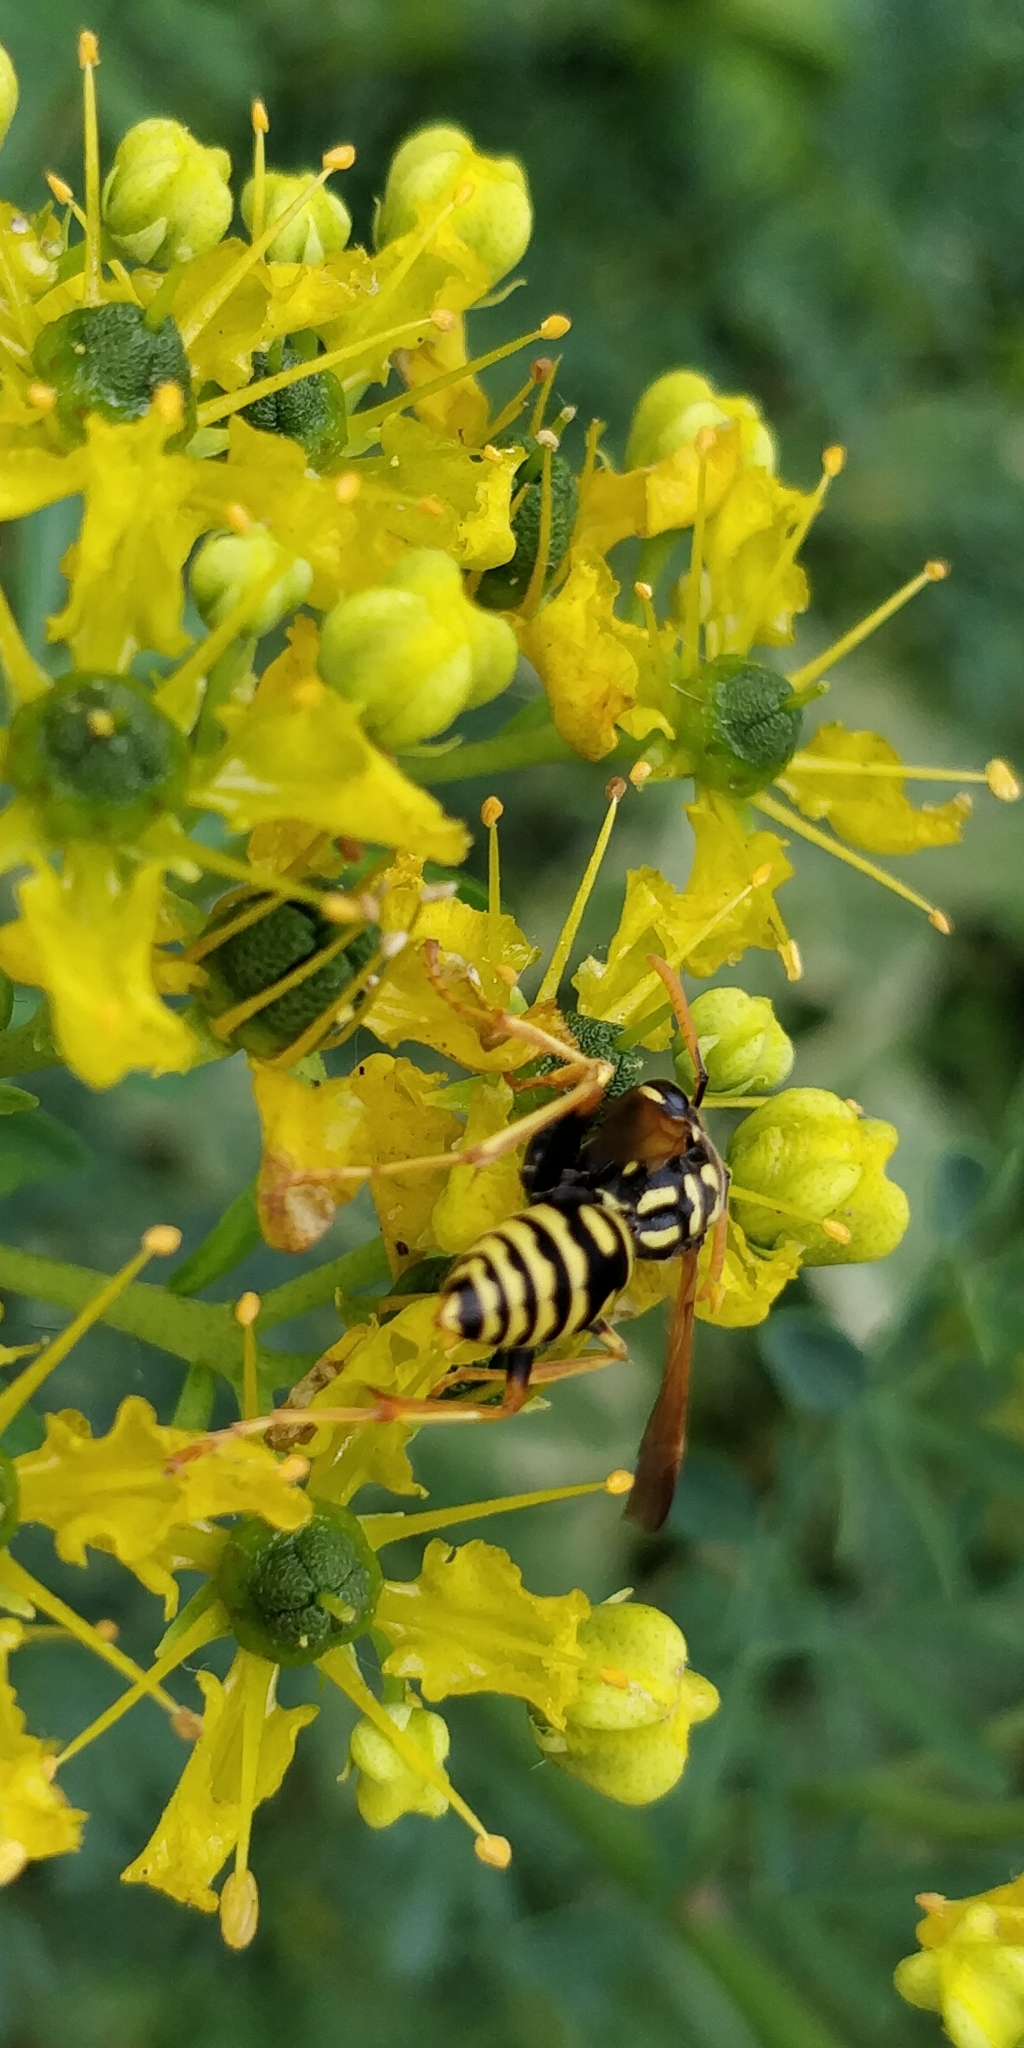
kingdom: Animalia
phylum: Arthropoda
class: Insecta
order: Hymenoptera
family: Eumenidae
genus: Polistes
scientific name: Polistes dominula
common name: Paper wasp
